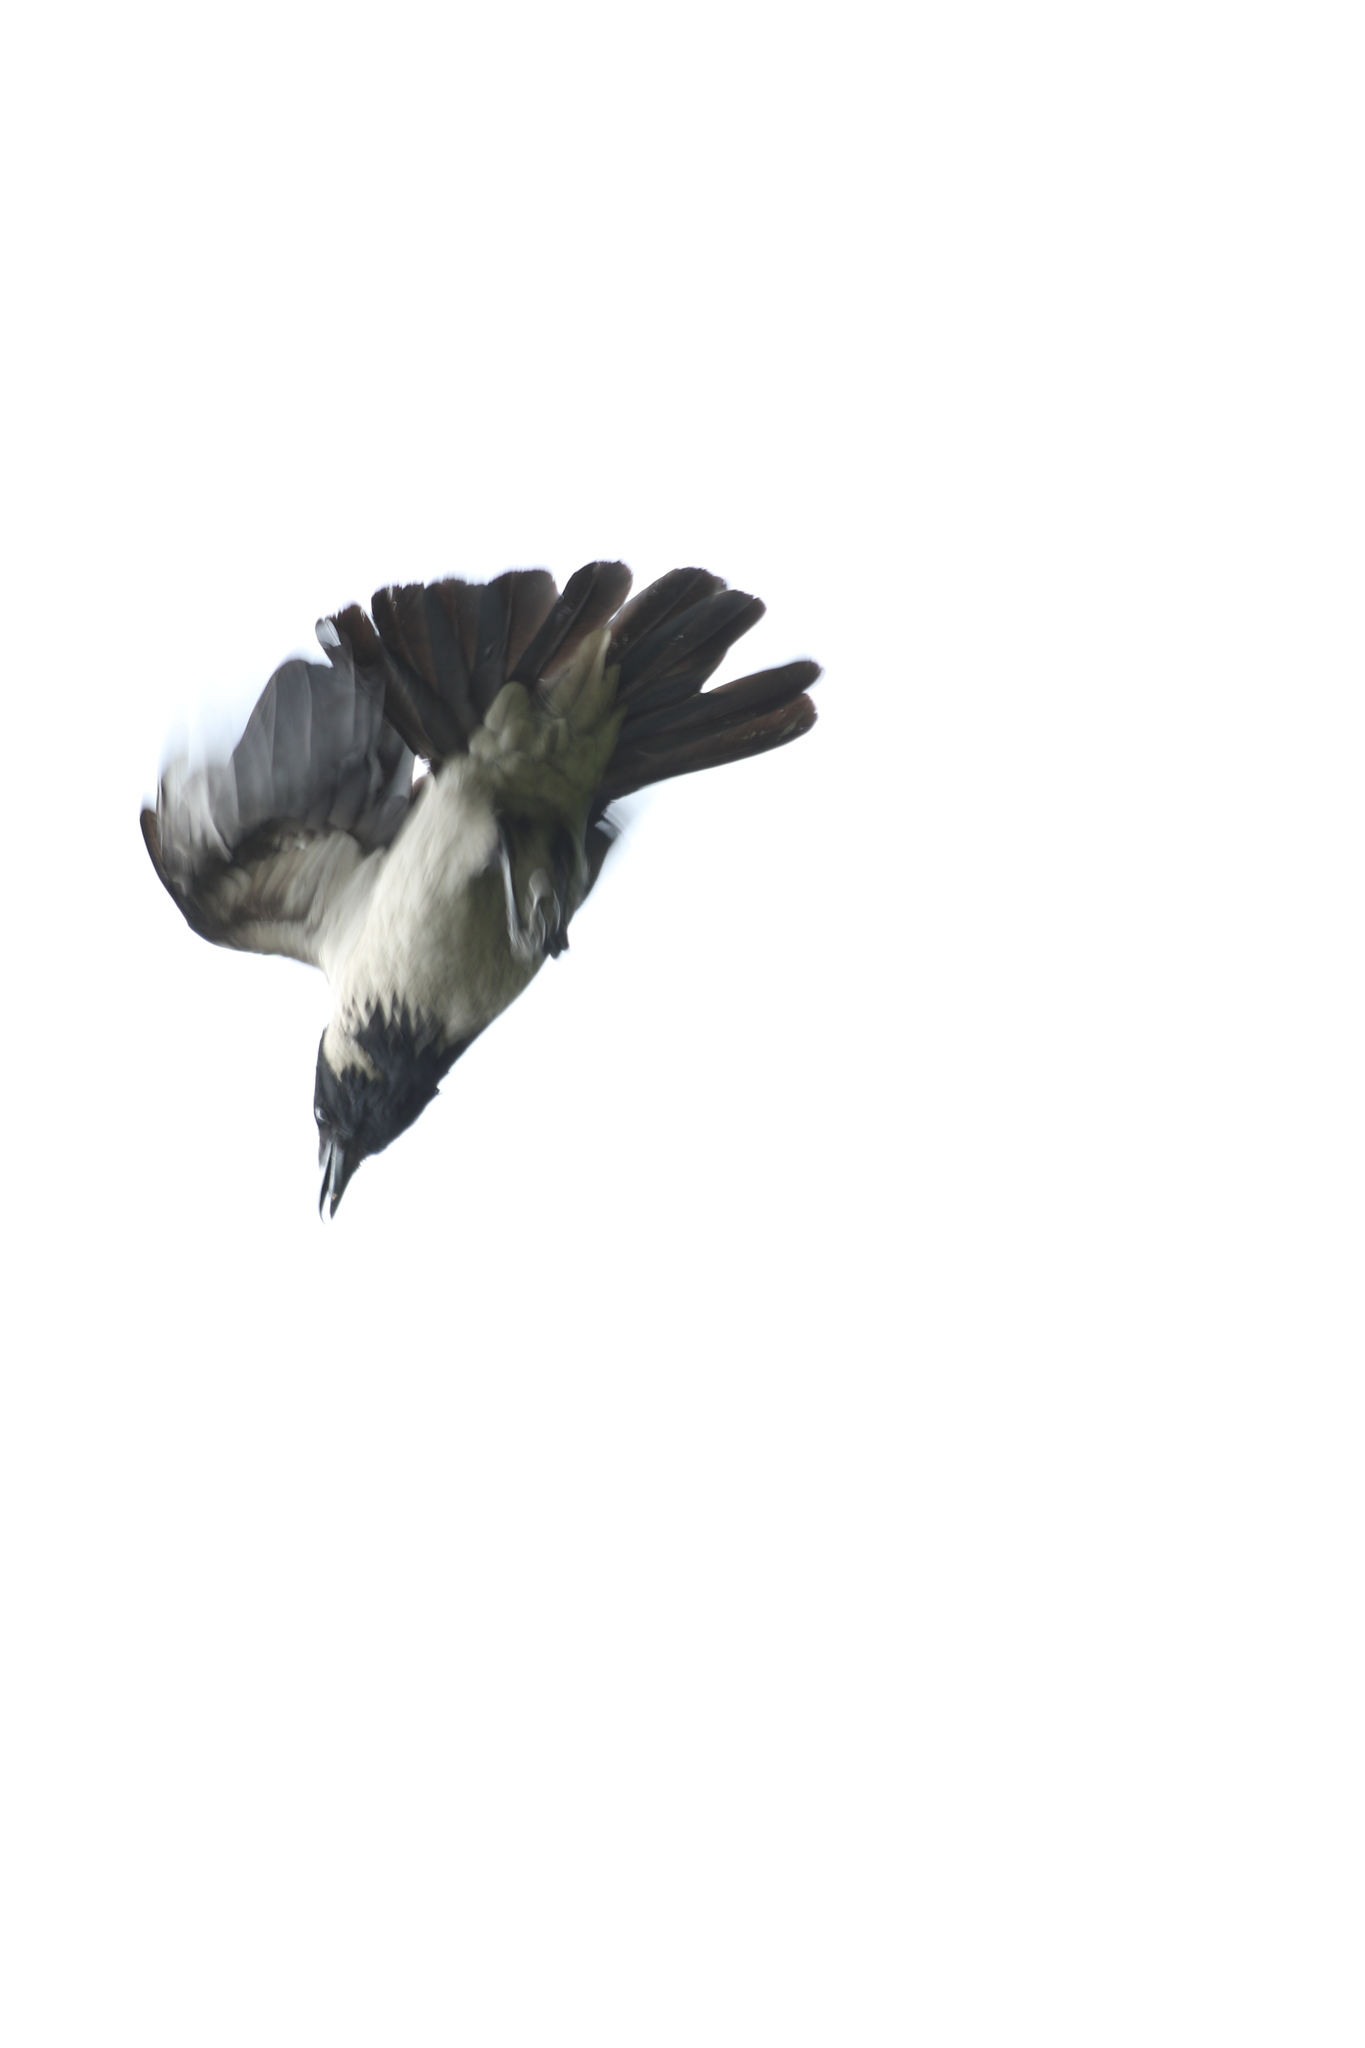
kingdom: Animalia
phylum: Chordata
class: Aves
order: Passeriformes
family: Corvidae
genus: Corvus
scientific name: Corvus cornix
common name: Hooded crow
